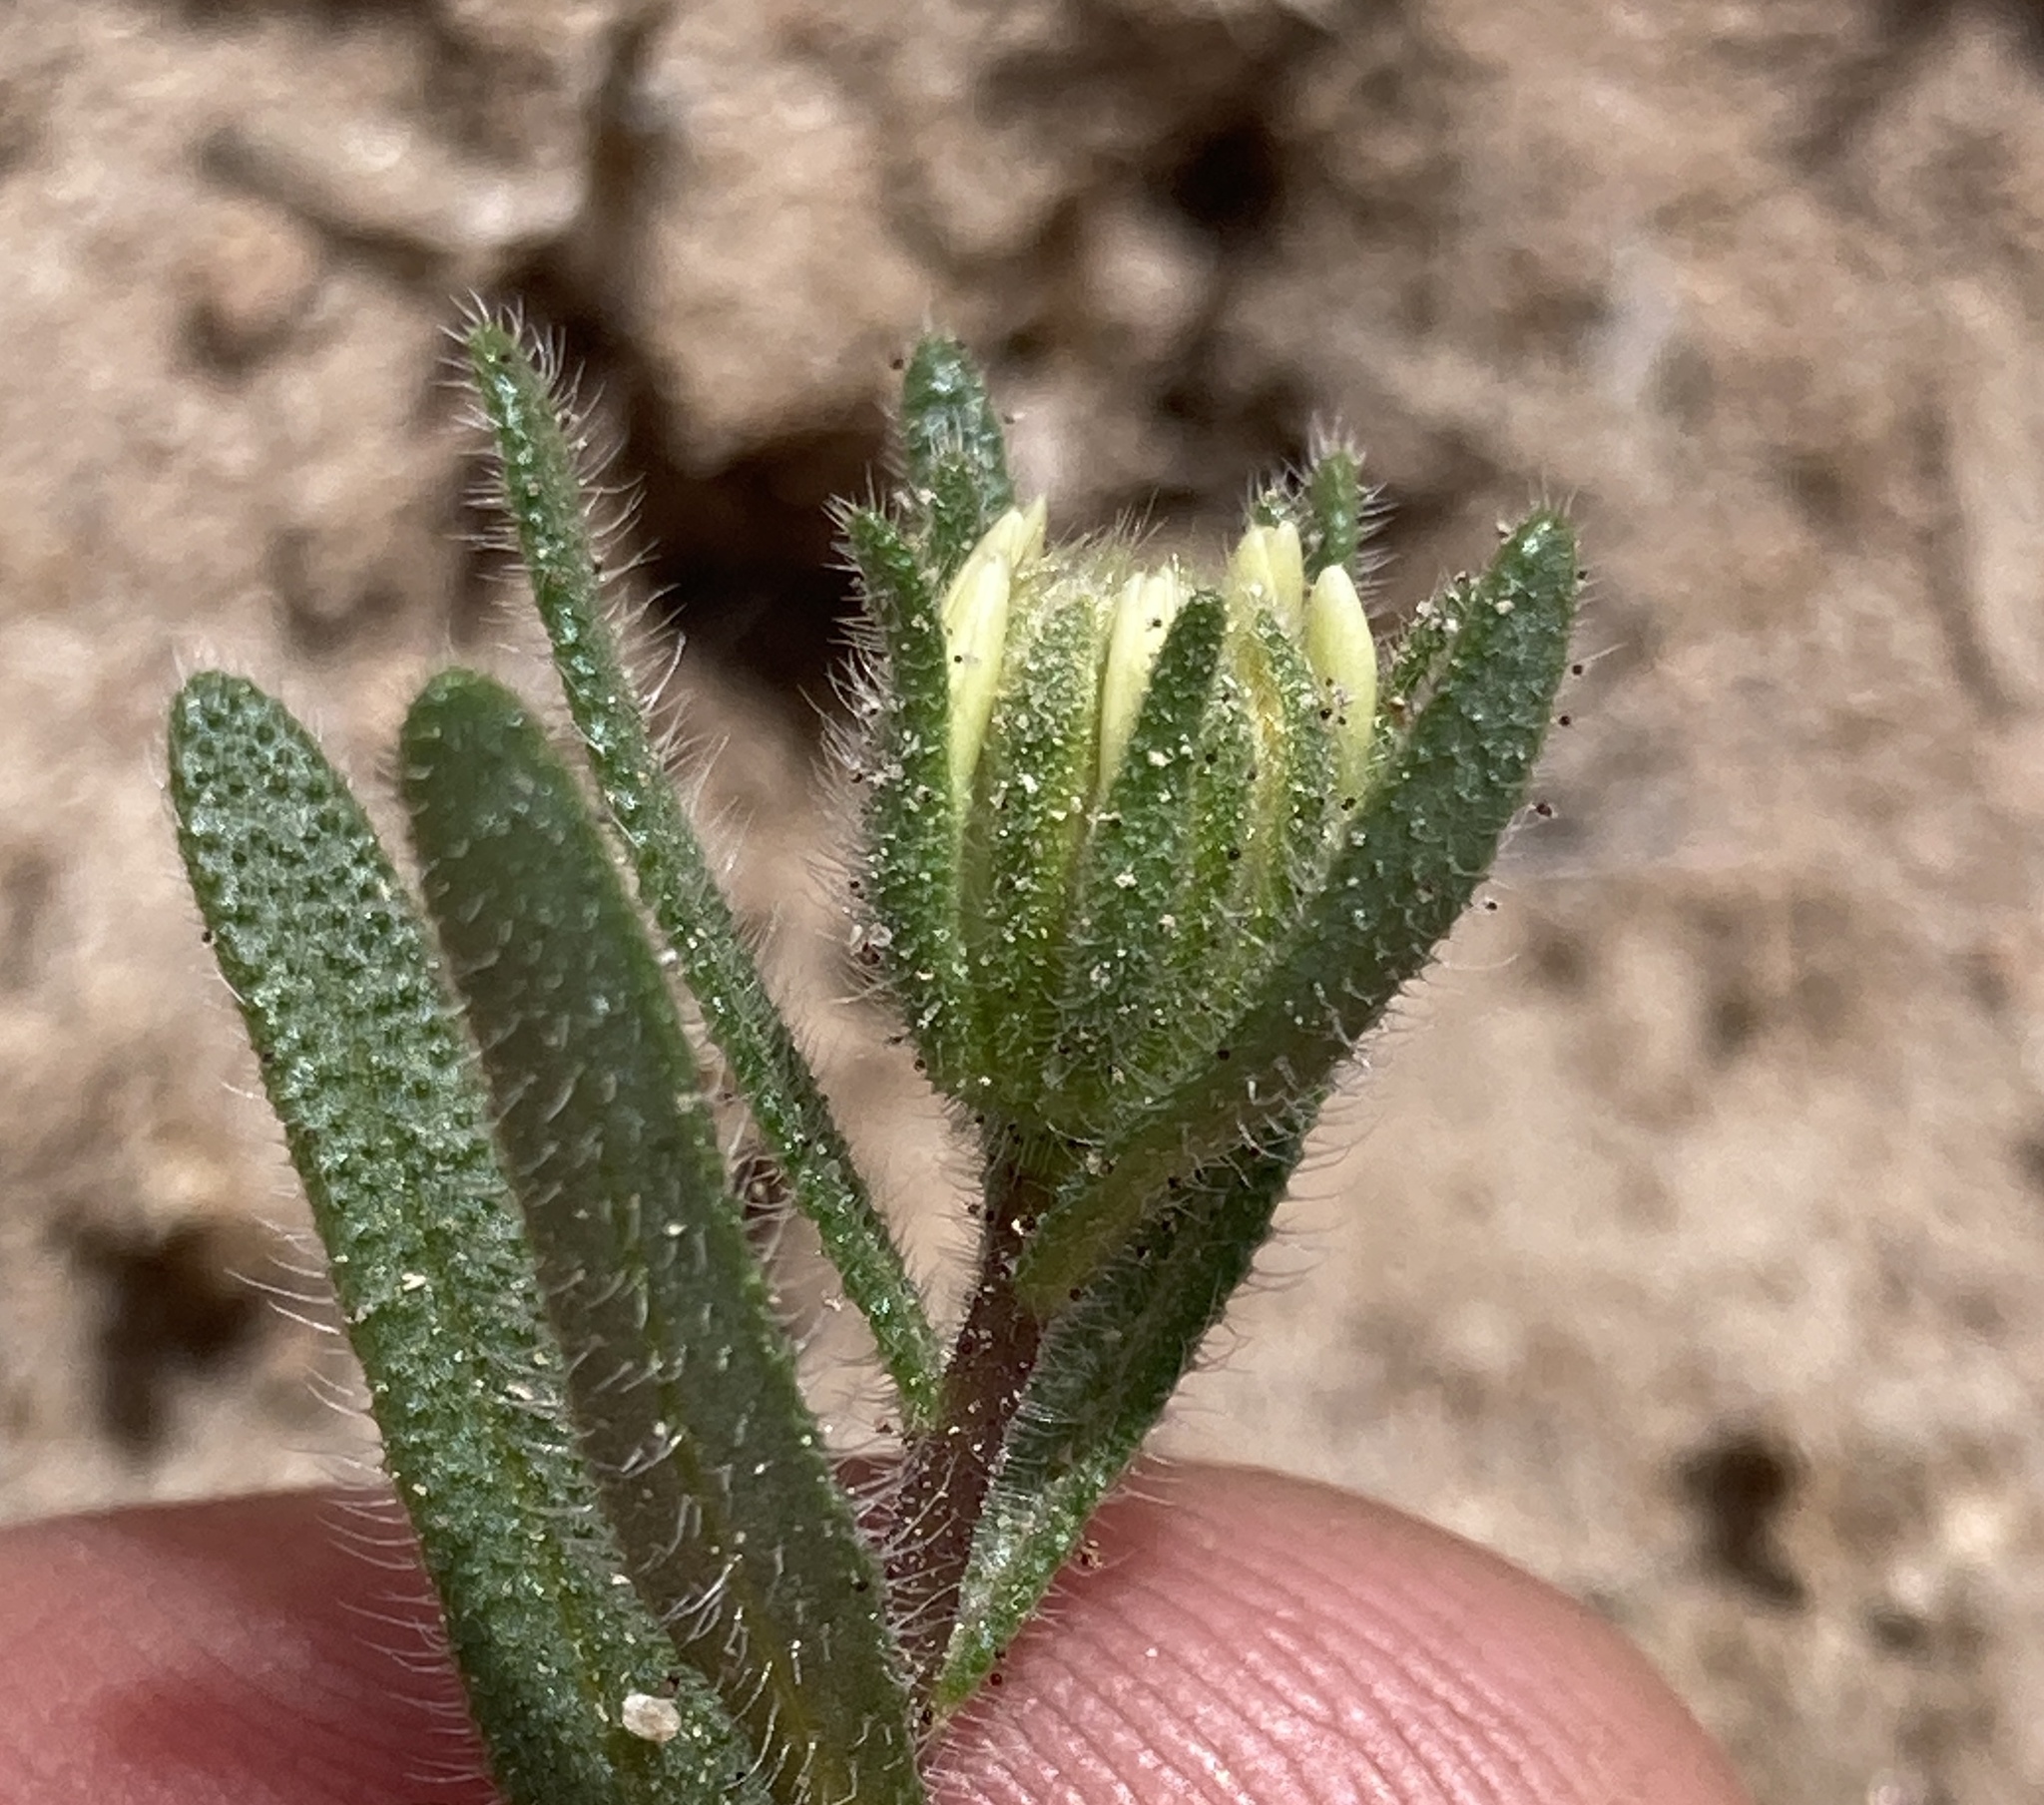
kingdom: Plantae
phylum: Tracheophyta
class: Magnoliopsida
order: Asterales
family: Asteraceae
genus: Layia
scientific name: Layia glandulosa
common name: White layia
